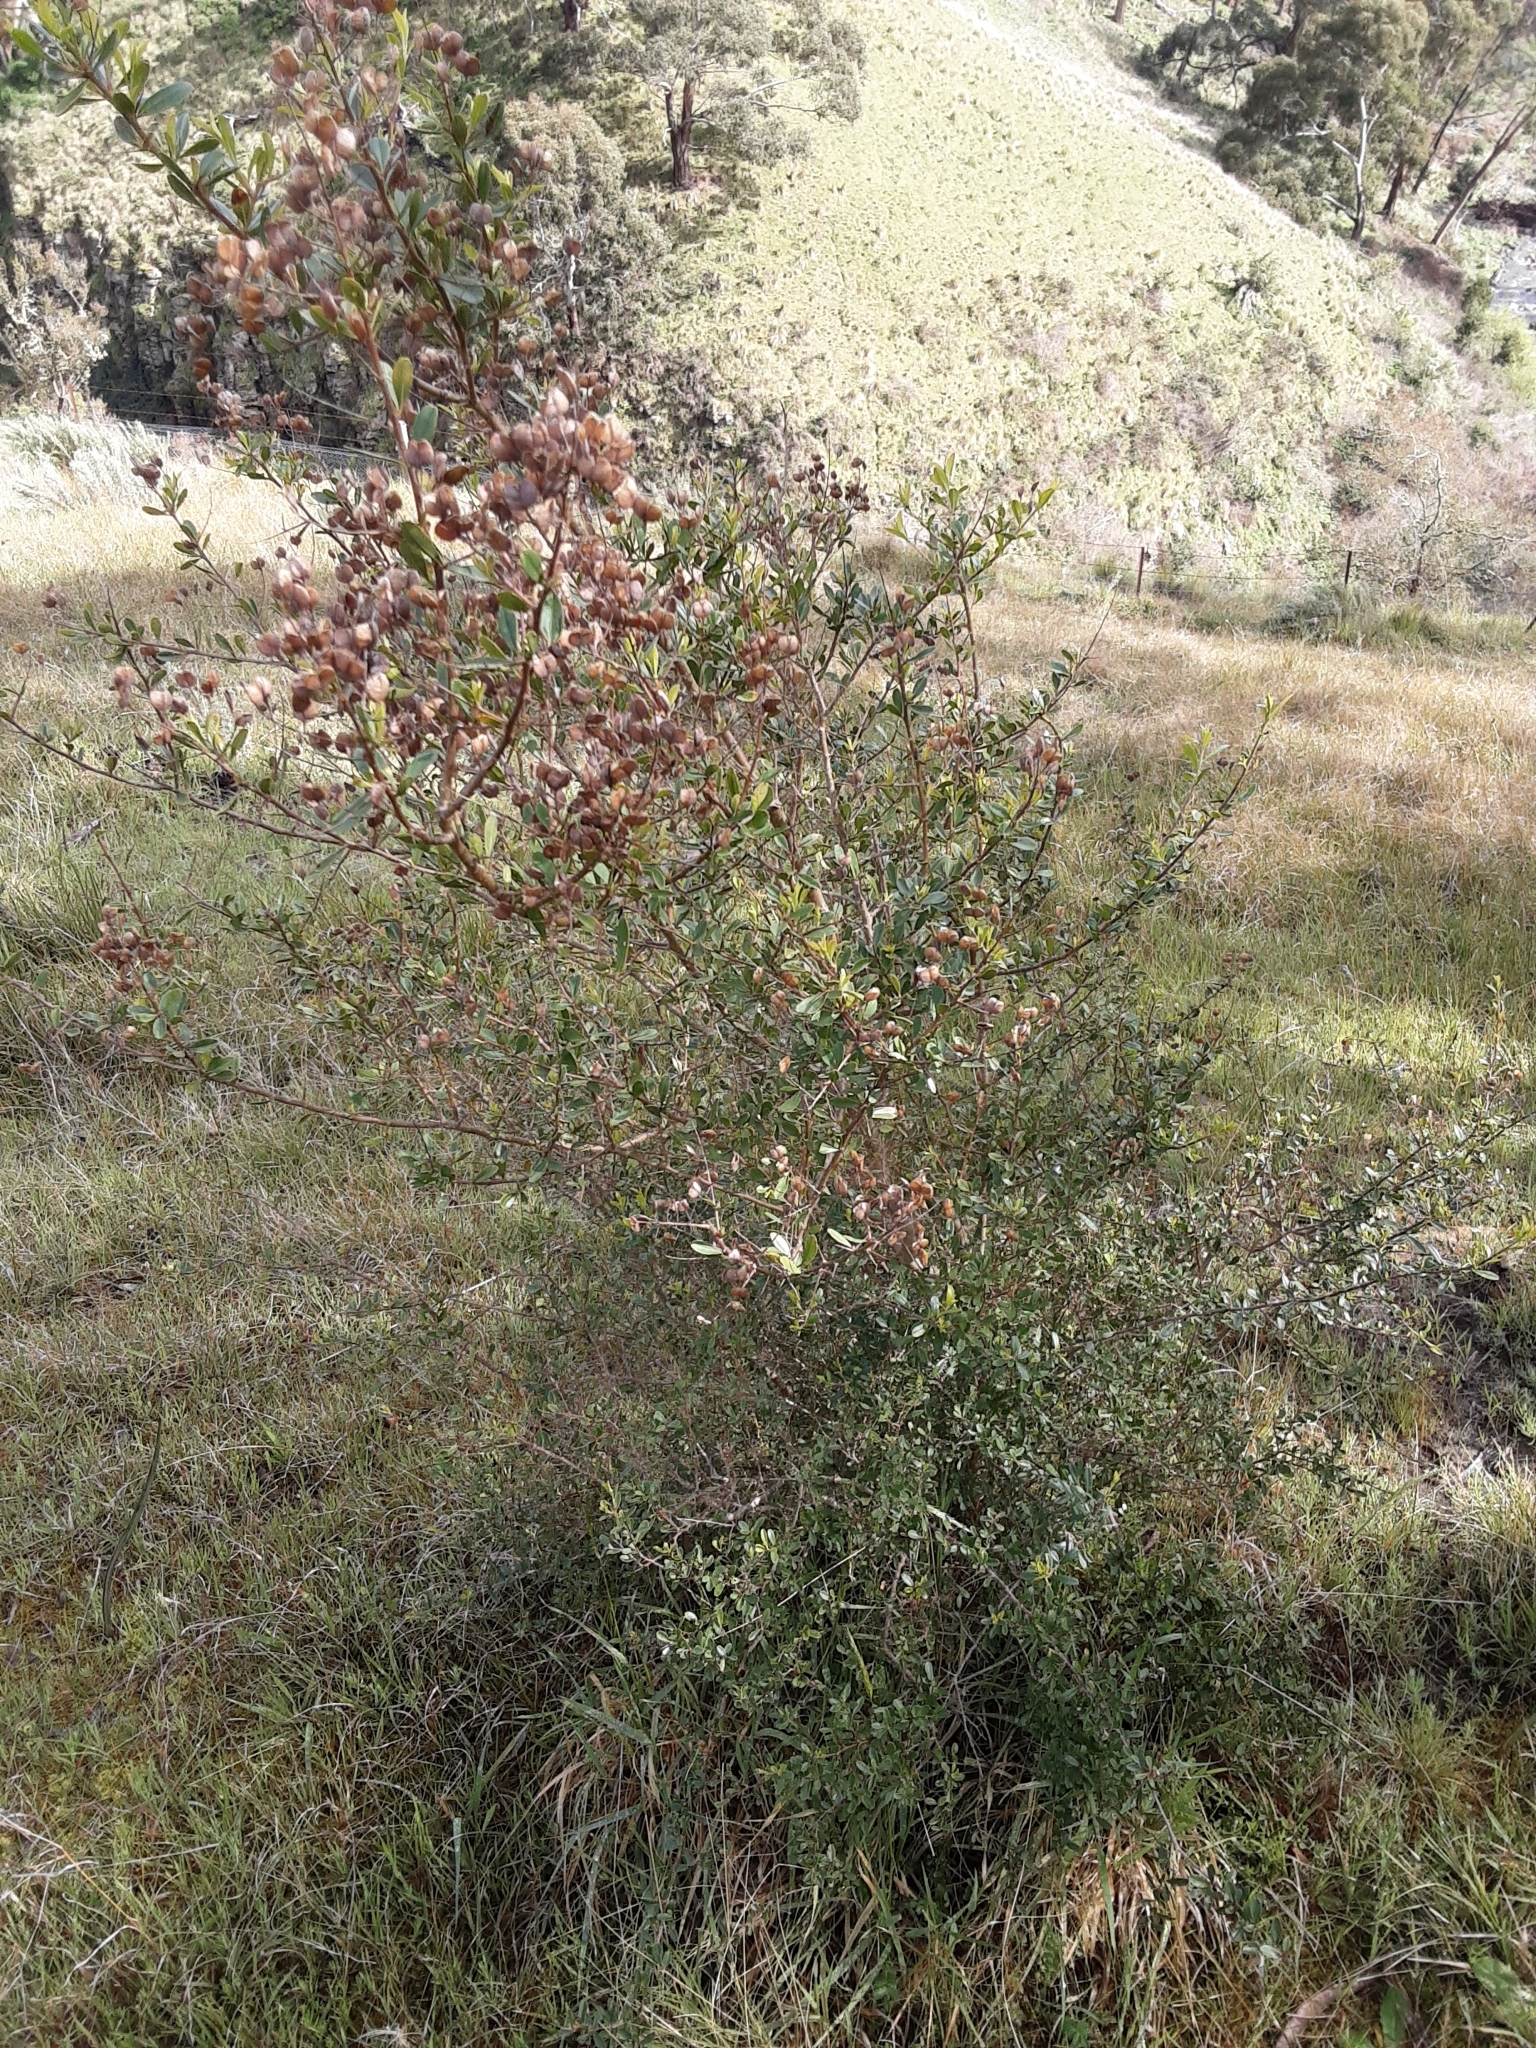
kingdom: Plantae
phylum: Tracheophyta
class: Magnoliopsida
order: Apiales
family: Pittosporaceae
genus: Bursaria
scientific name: Bursaria spinosa
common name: Australian blackthorn
